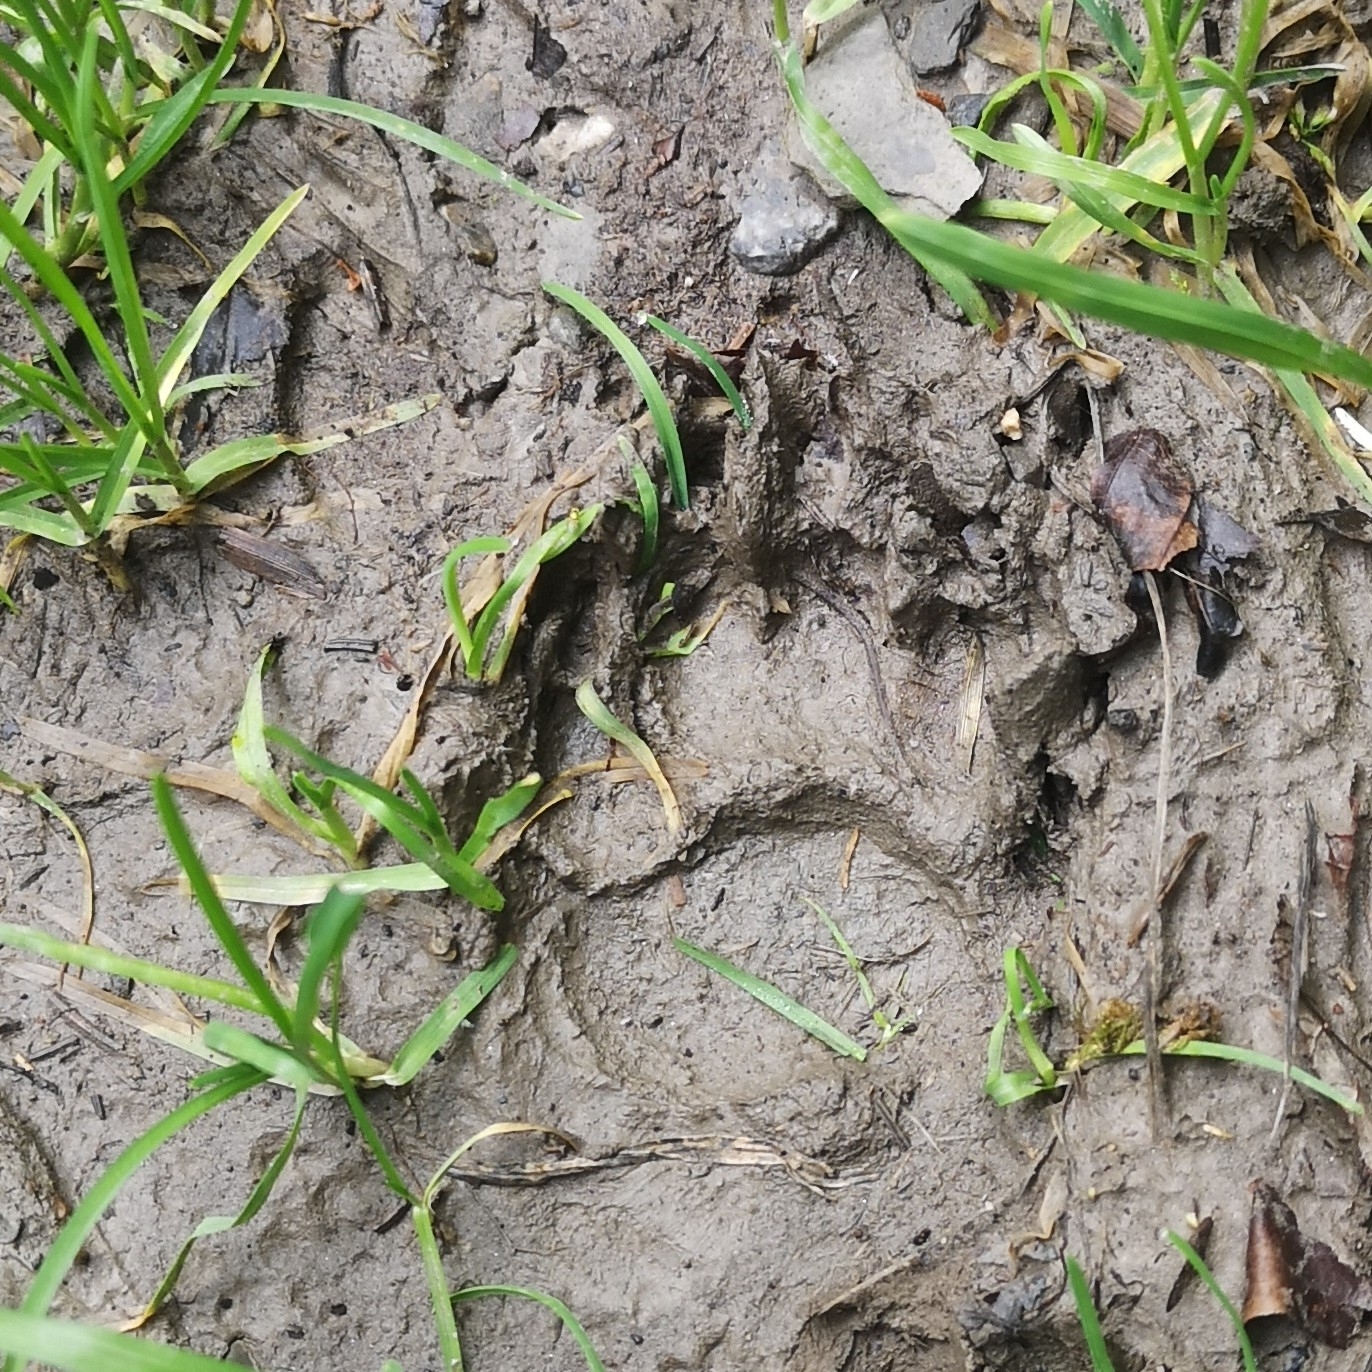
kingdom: Animalia
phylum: Chordata
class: Mammalia
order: Carnivora
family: Mustelidae
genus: Meles
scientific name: Meles meles
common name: Eurasian badger
